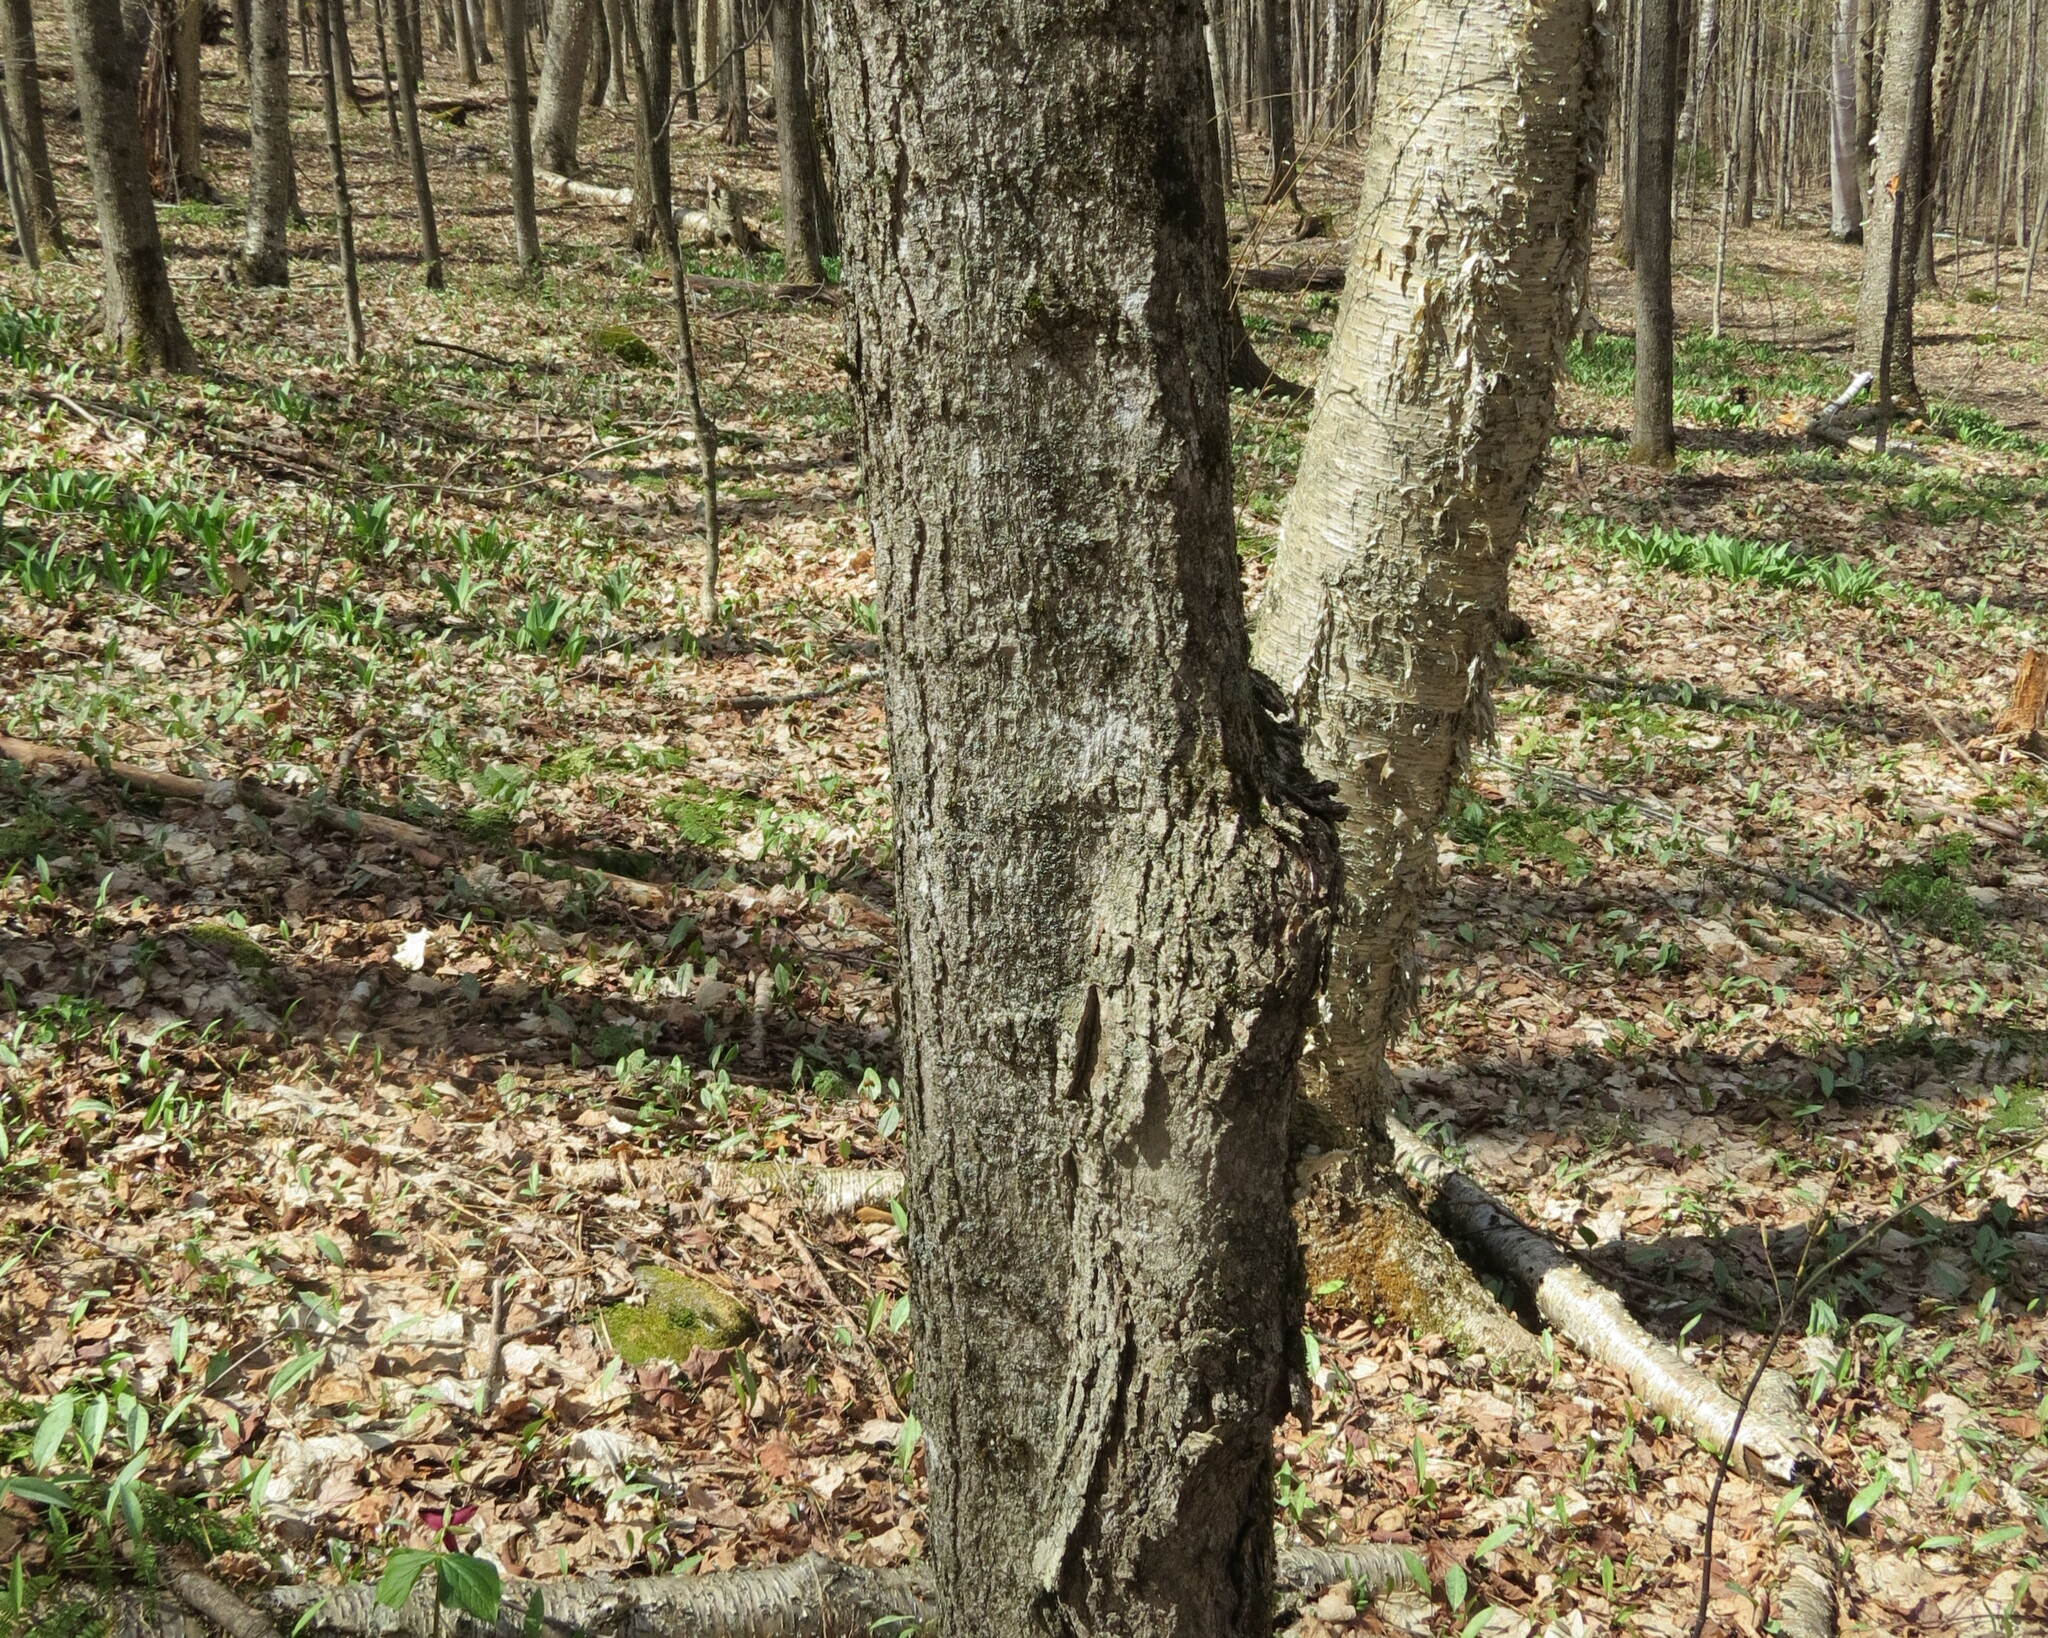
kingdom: Animalia
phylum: Arthropoda
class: Insecta
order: Lepidoptera
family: Erebidae
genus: Lymantria
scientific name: Lymantria dispar
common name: Gypsy moth
